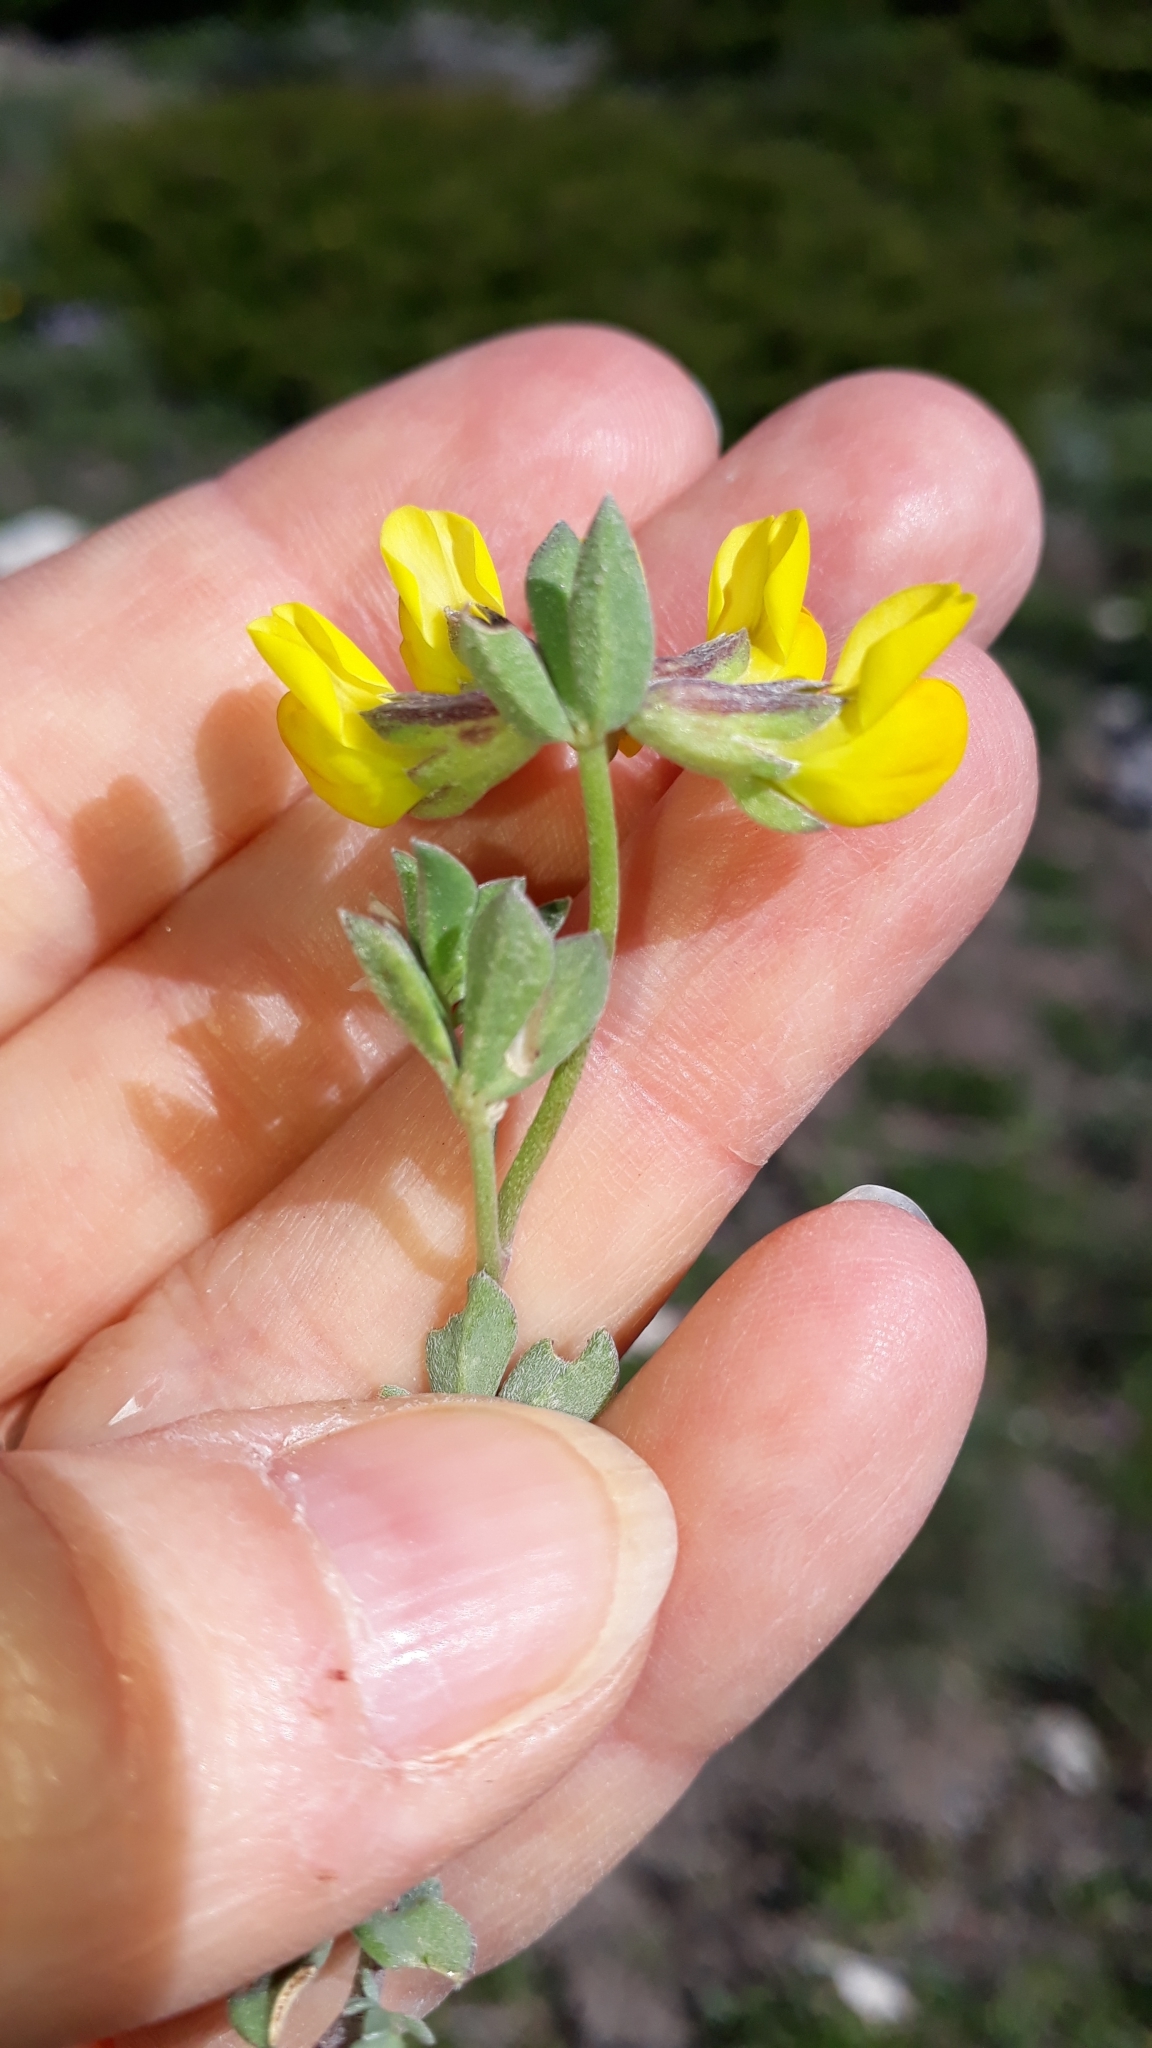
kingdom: Plantae
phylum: Tracheophyta
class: Magnoliopsida
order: Fabales
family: Fabaceae
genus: Lotus
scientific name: Lotus cytisoides
